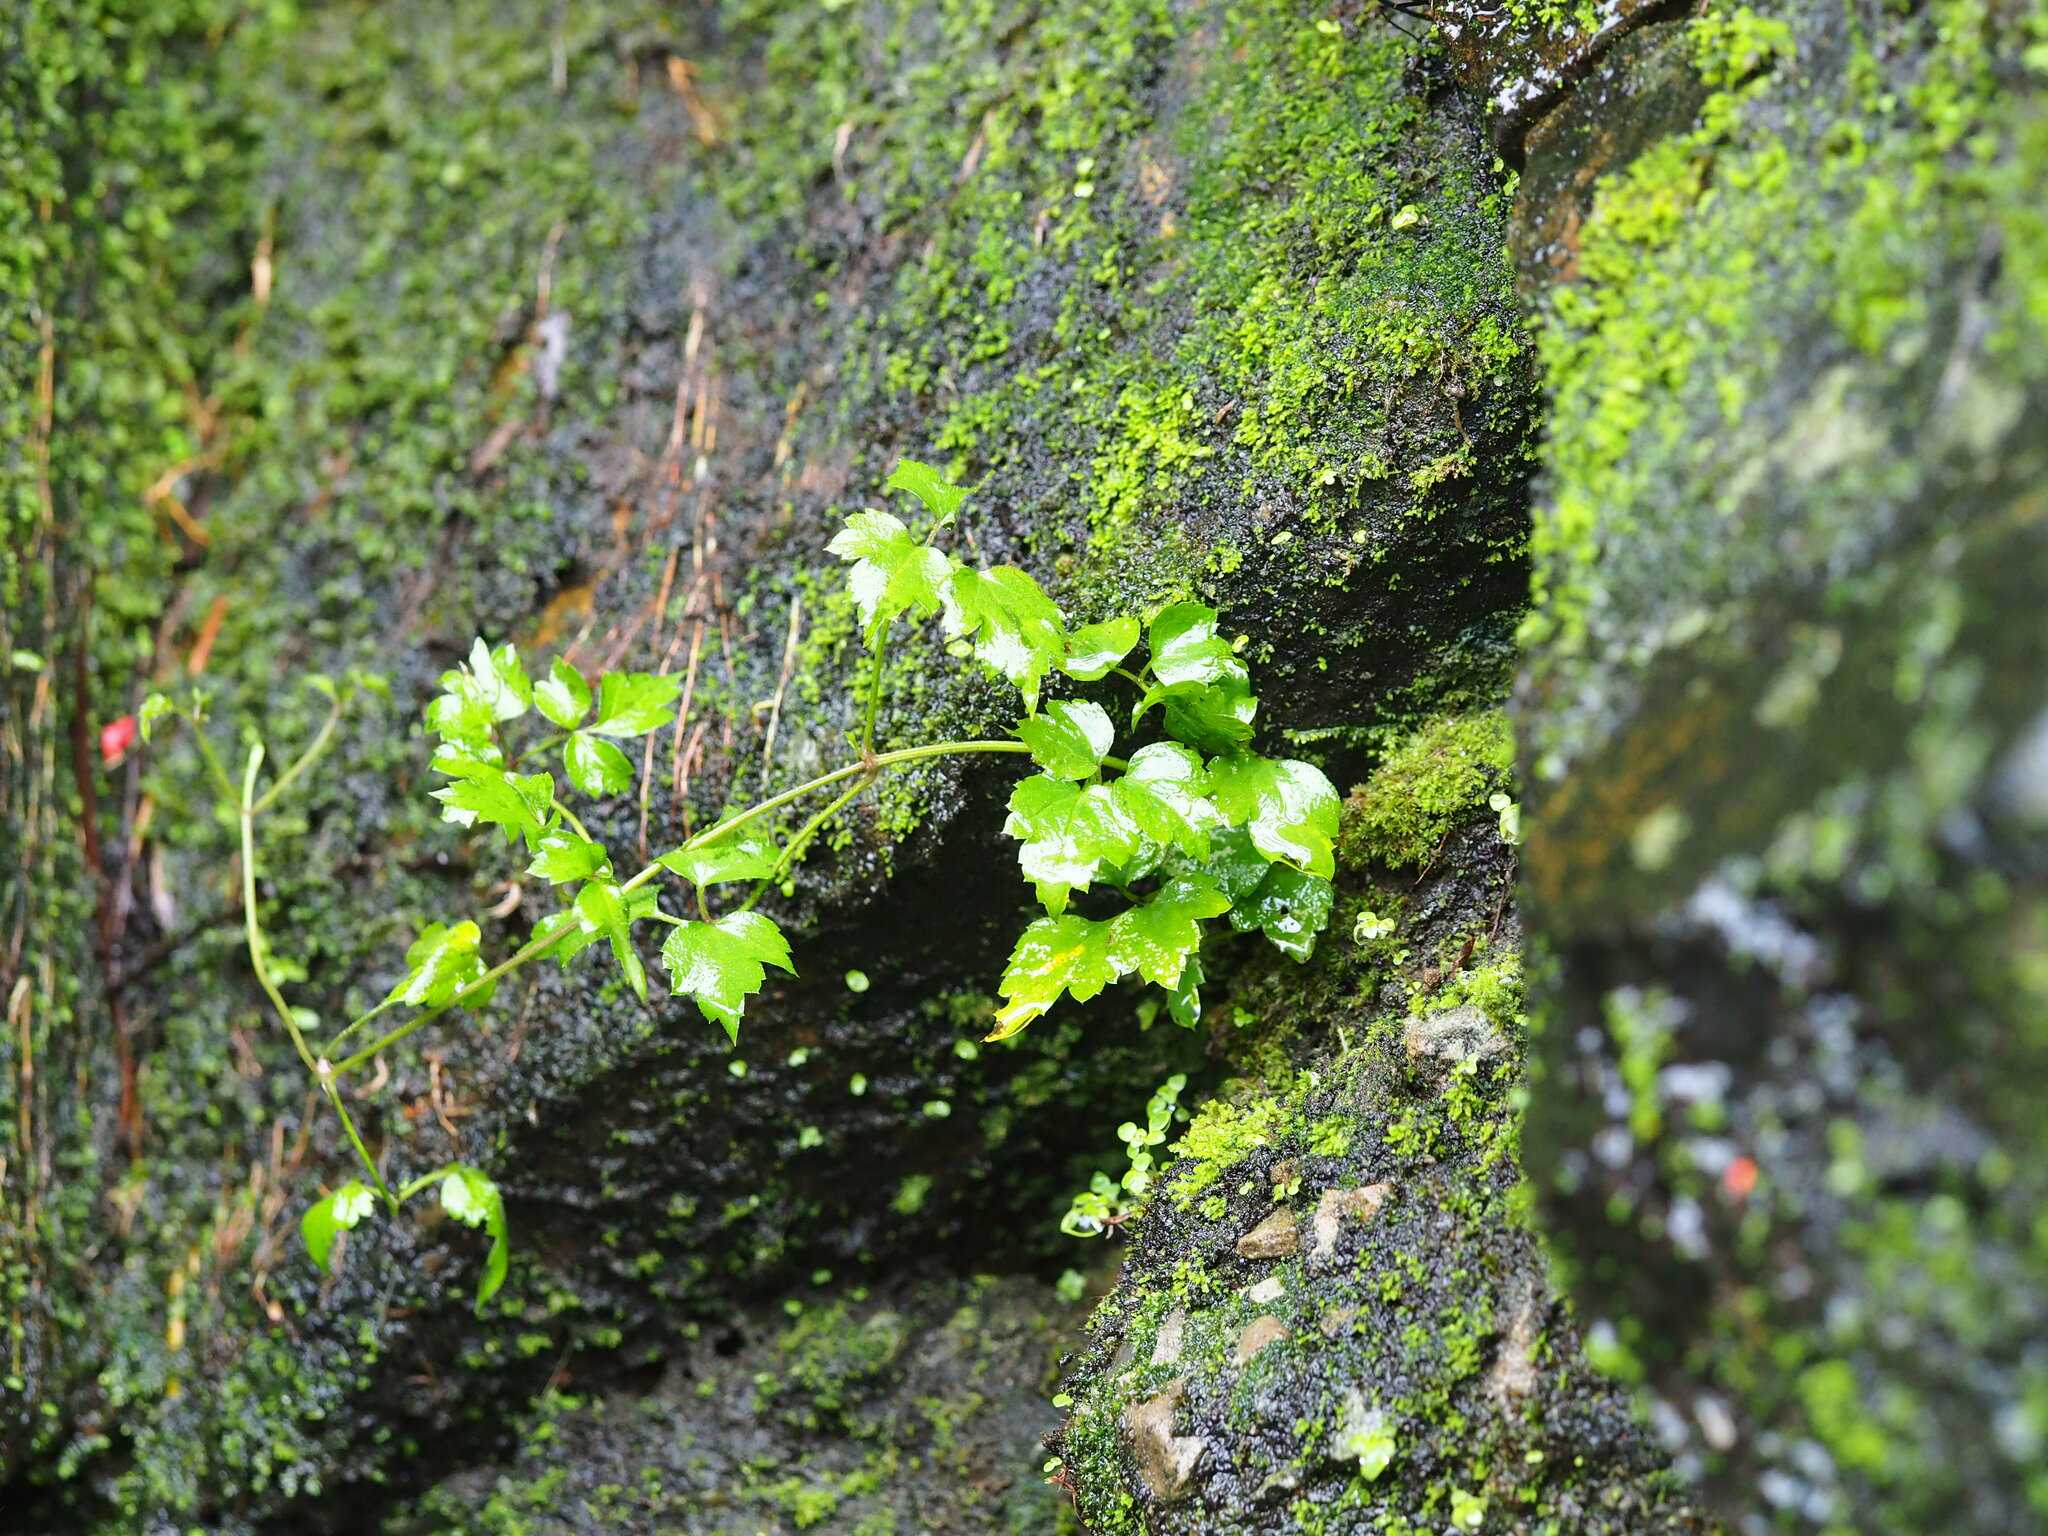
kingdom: Plantae
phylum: Tracheophyta
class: Magnoliopsida
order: Ranunculales
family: Ranunculaceae
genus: Clematis
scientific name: Clematis grata
